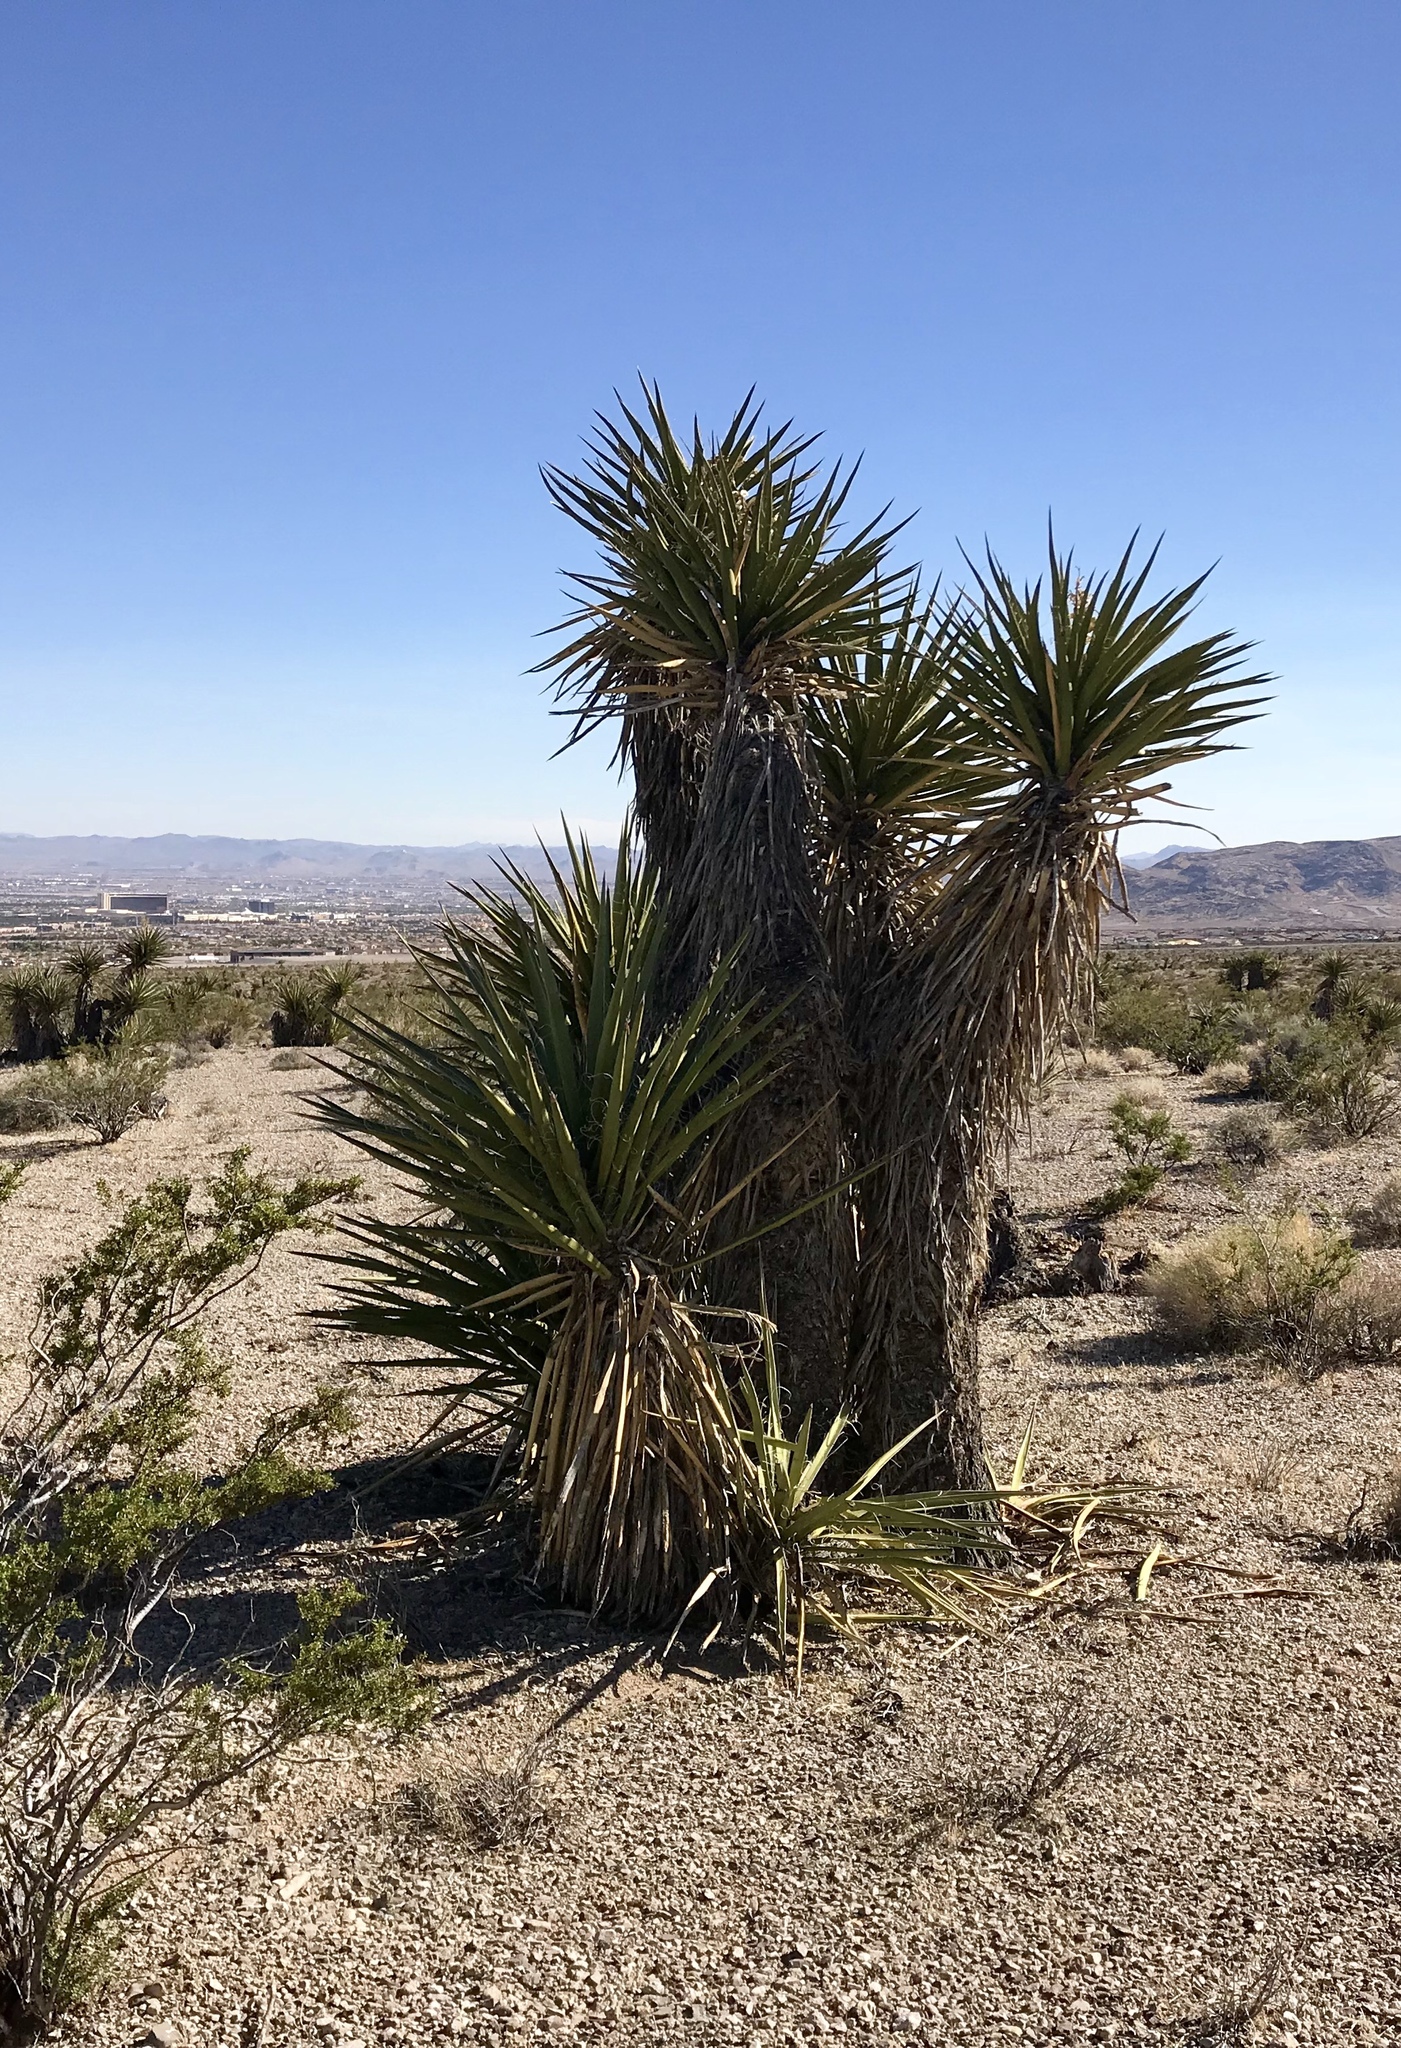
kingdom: Plantae
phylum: Tracheophyta
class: Liliopsida
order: Asparagales
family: Asparagaceae
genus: Yucca
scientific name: Yucca schidigera
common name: Mojave yucca
